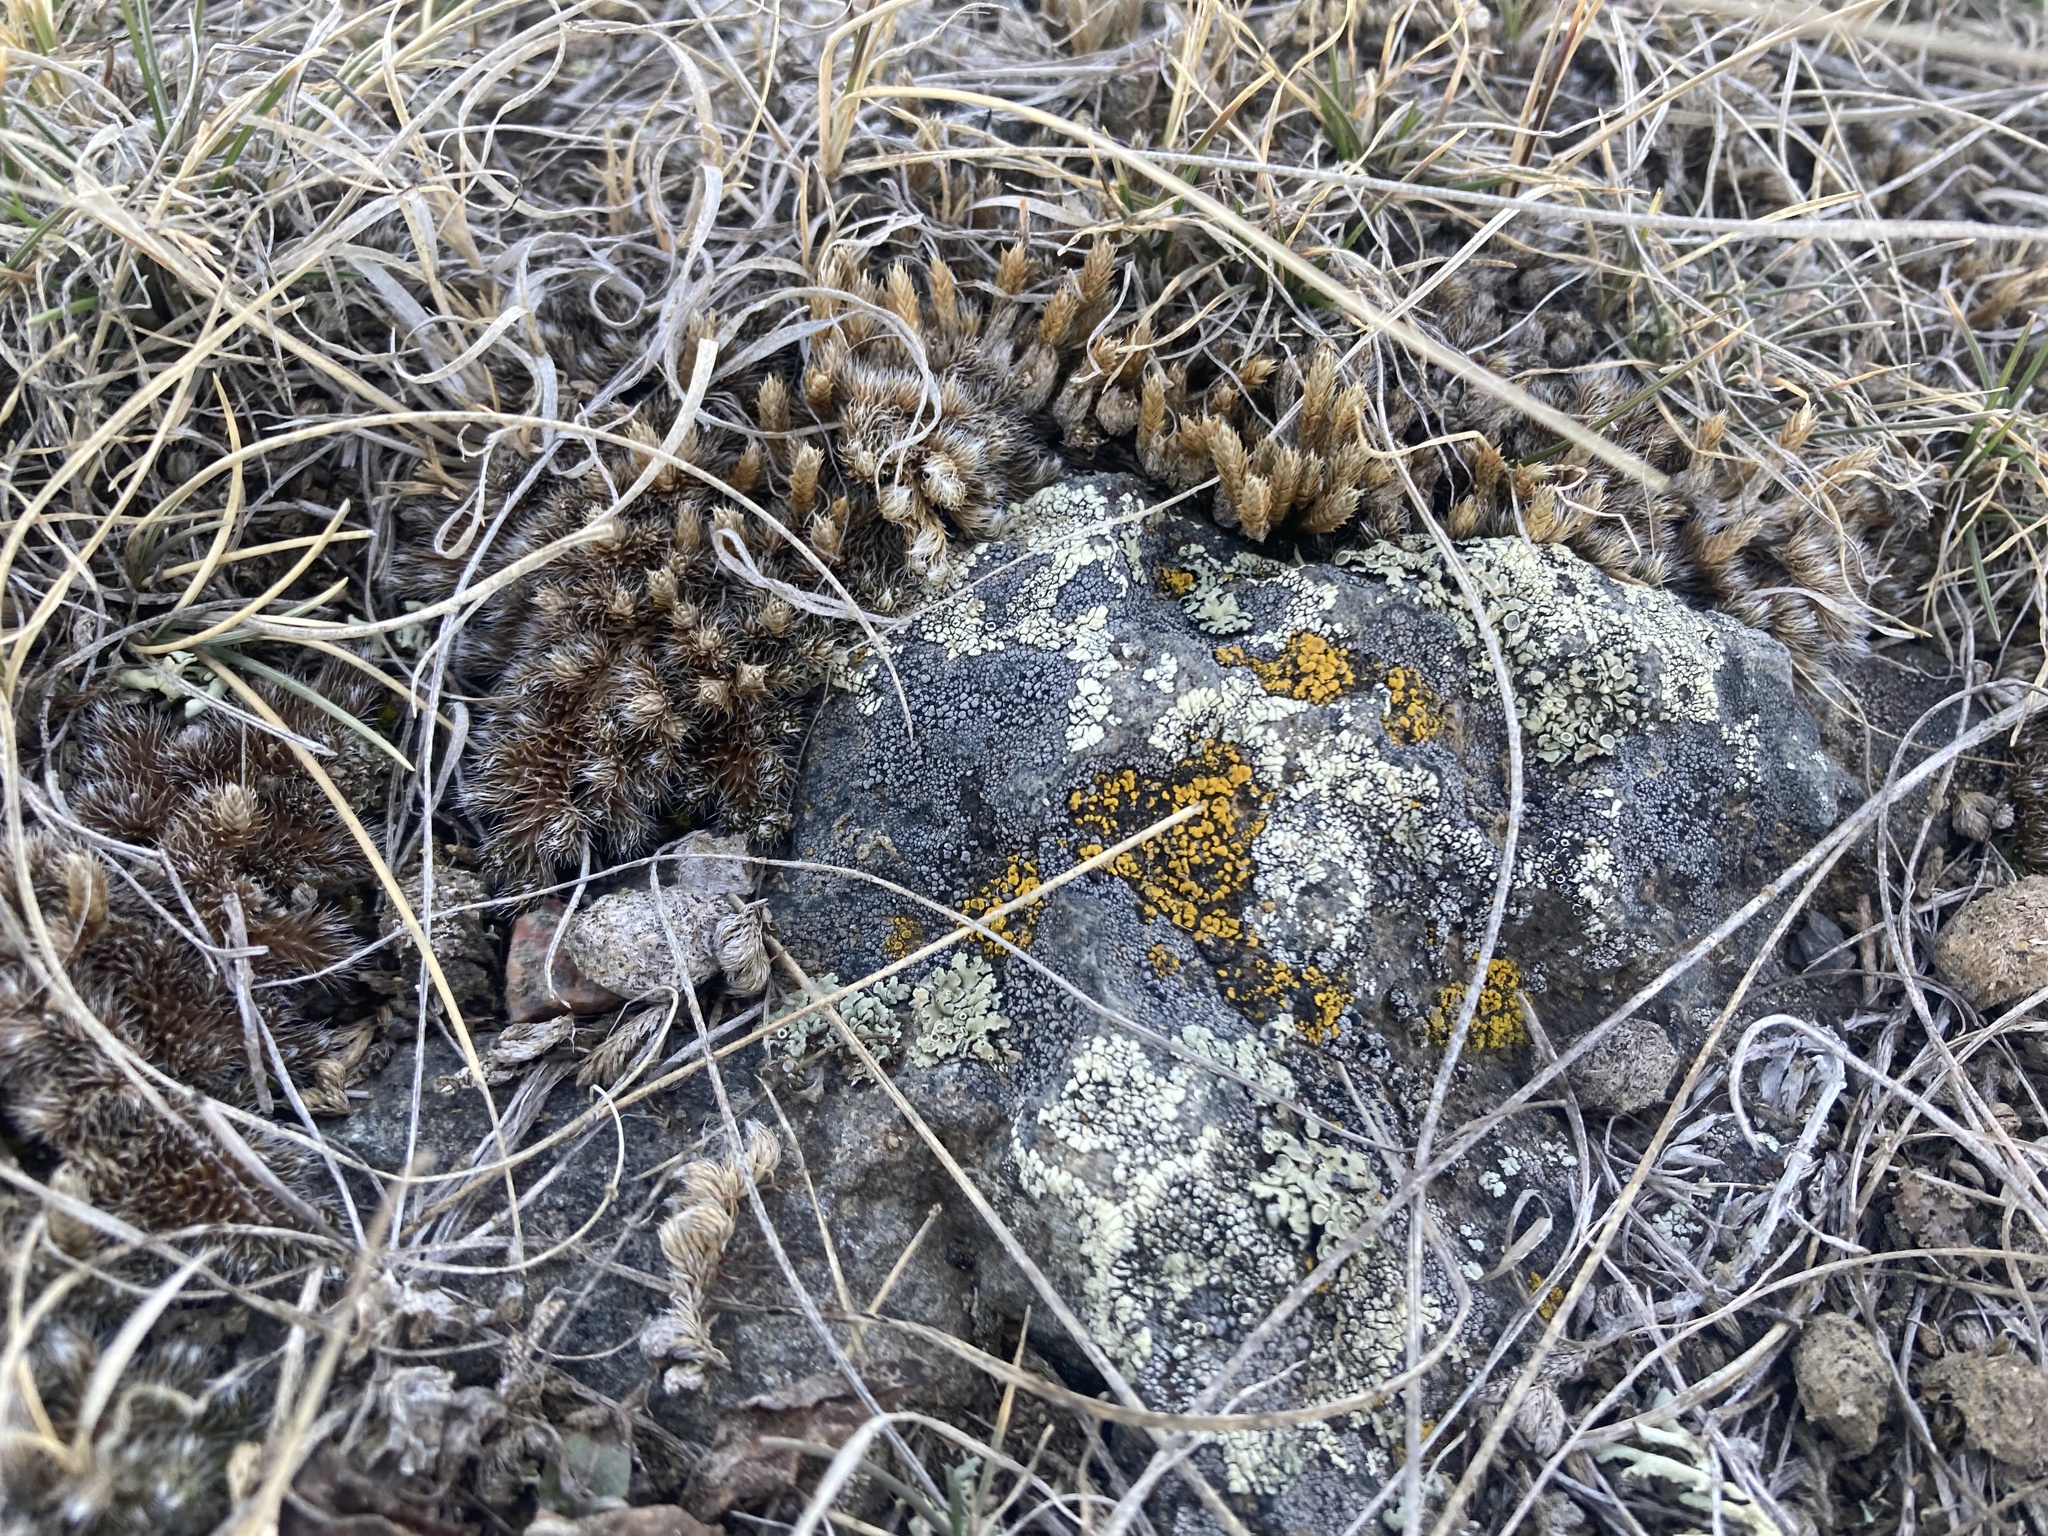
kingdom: Plantae
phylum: Tracheophyta
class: Lycopodiopsida
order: Selaginellales
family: Selaginellaceae
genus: Selaginella
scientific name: Selaginella densa
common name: Mountain spike-moss
